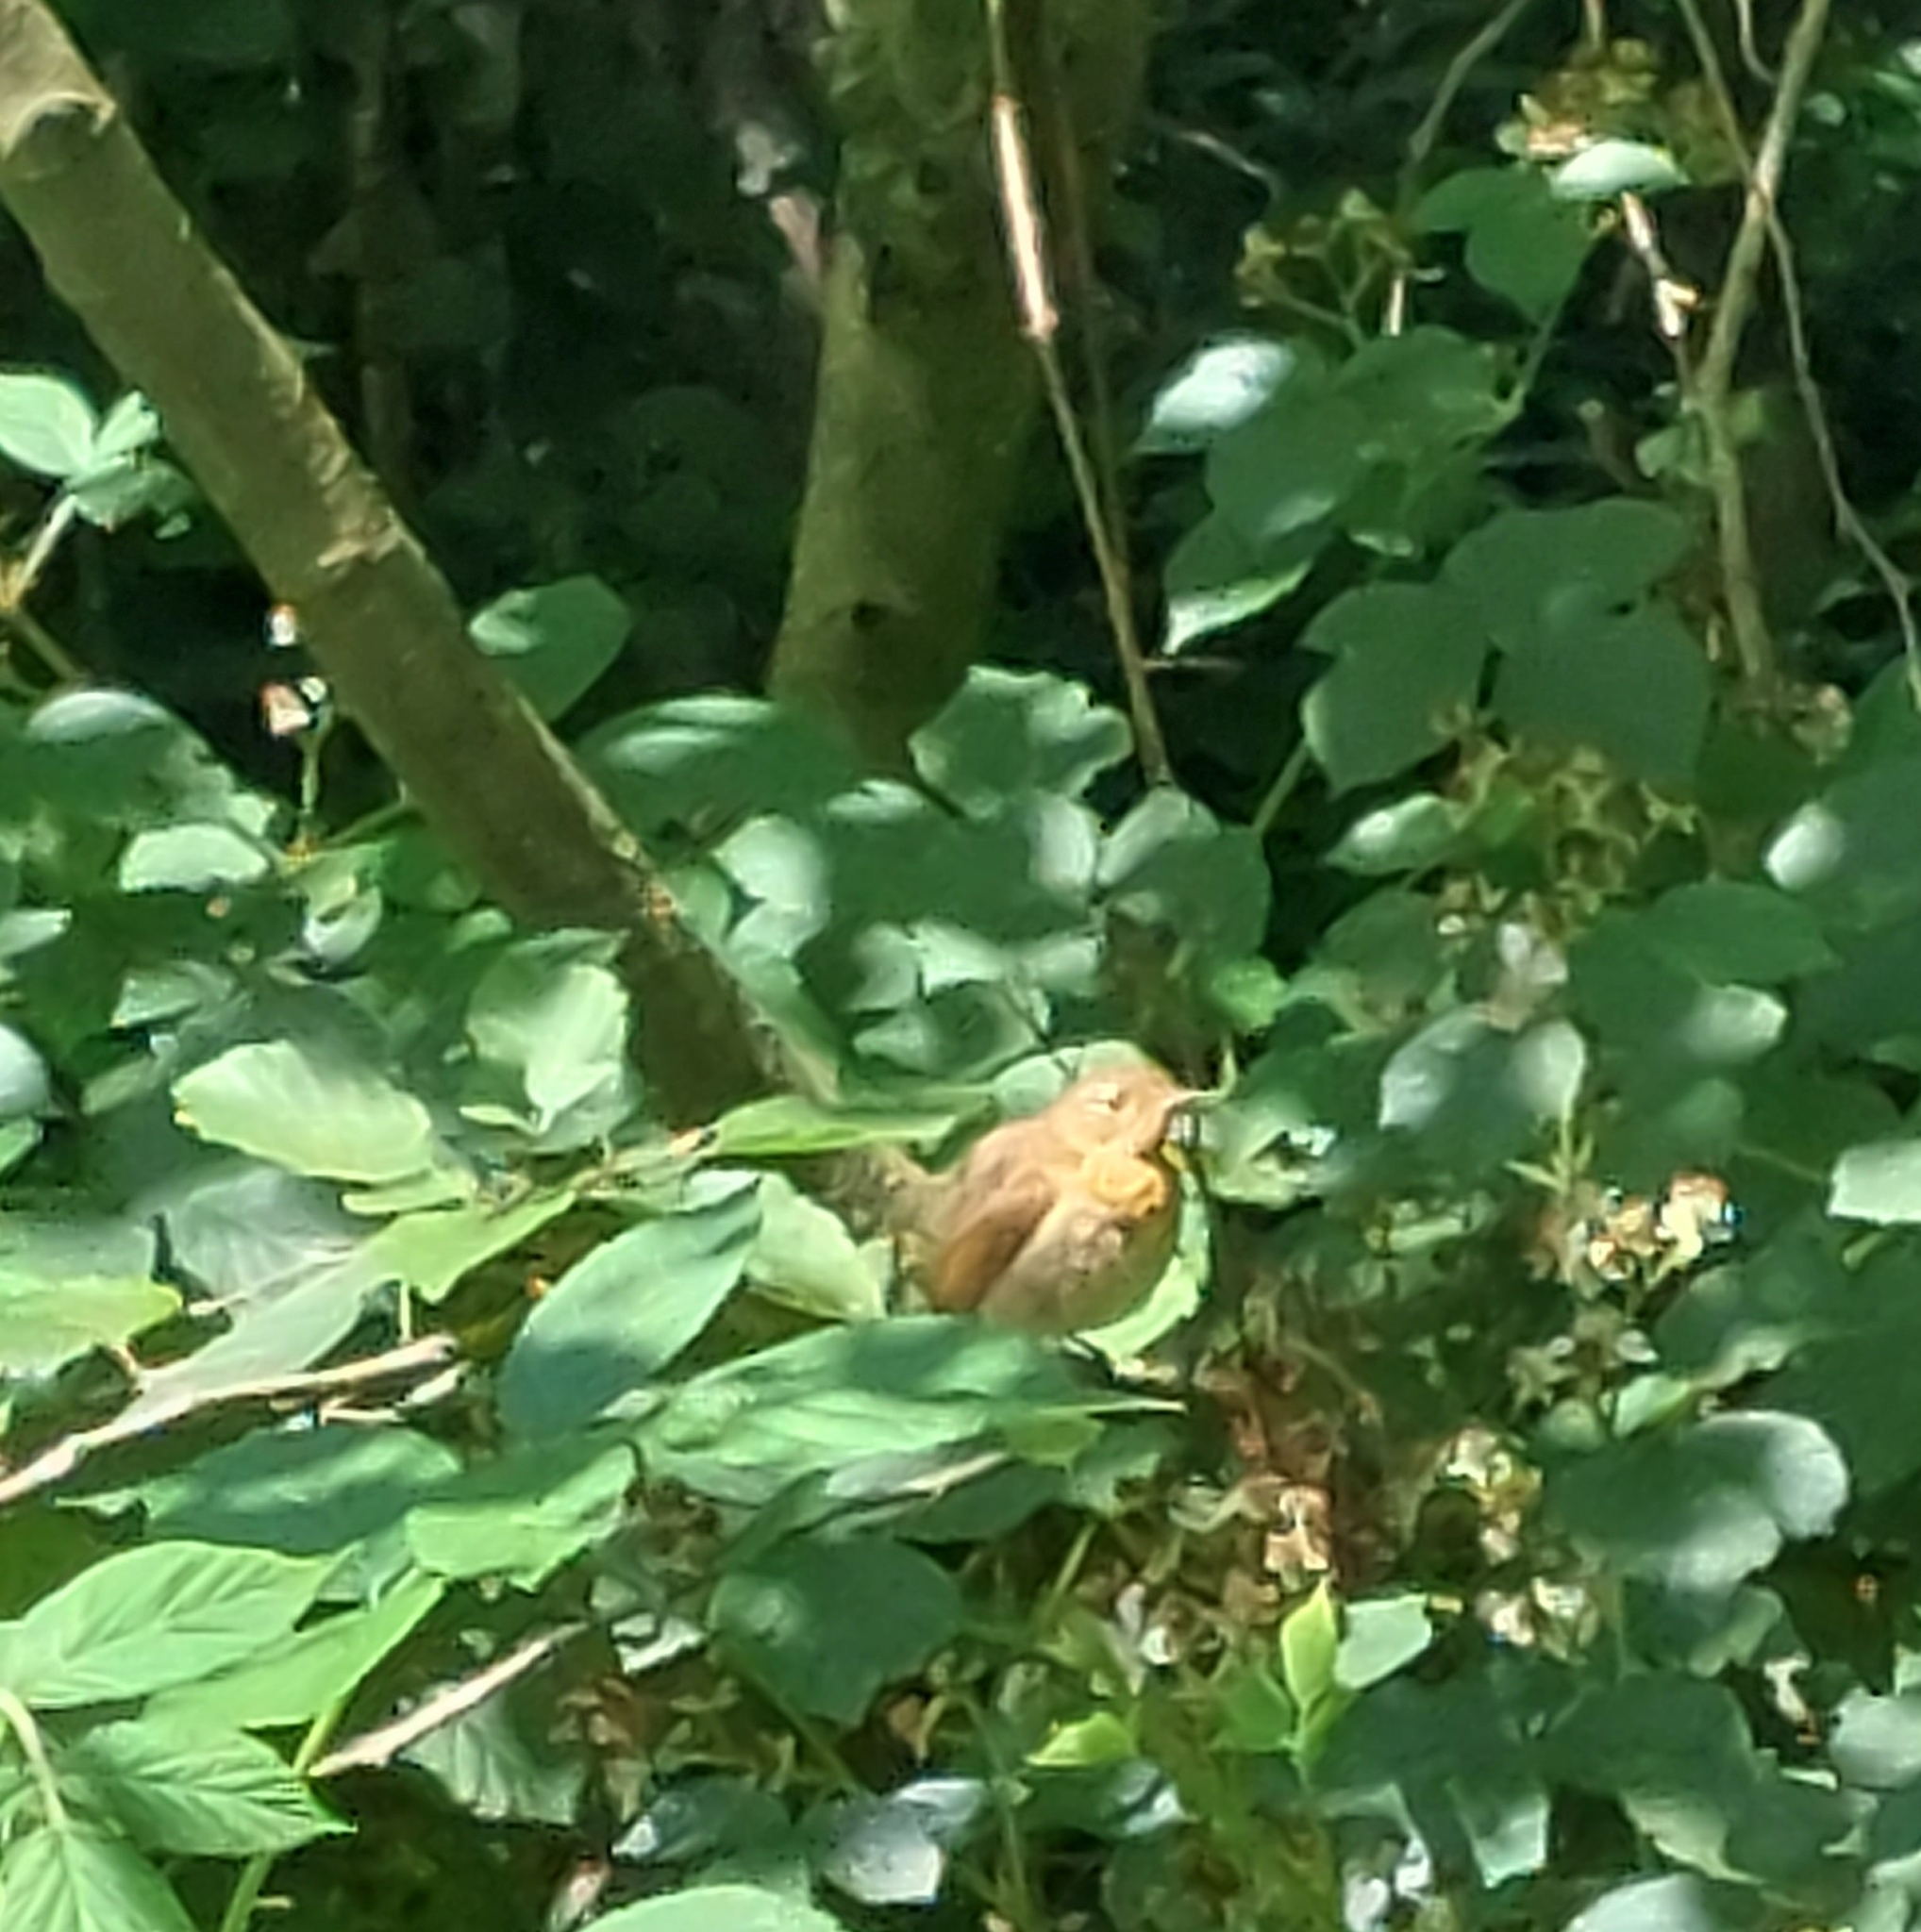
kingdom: Animalia
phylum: Chordata
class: Aves
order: Passeriformes
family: Muscicapidae
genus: Erithacus
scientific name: Erithacus rubecula
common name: European robin
